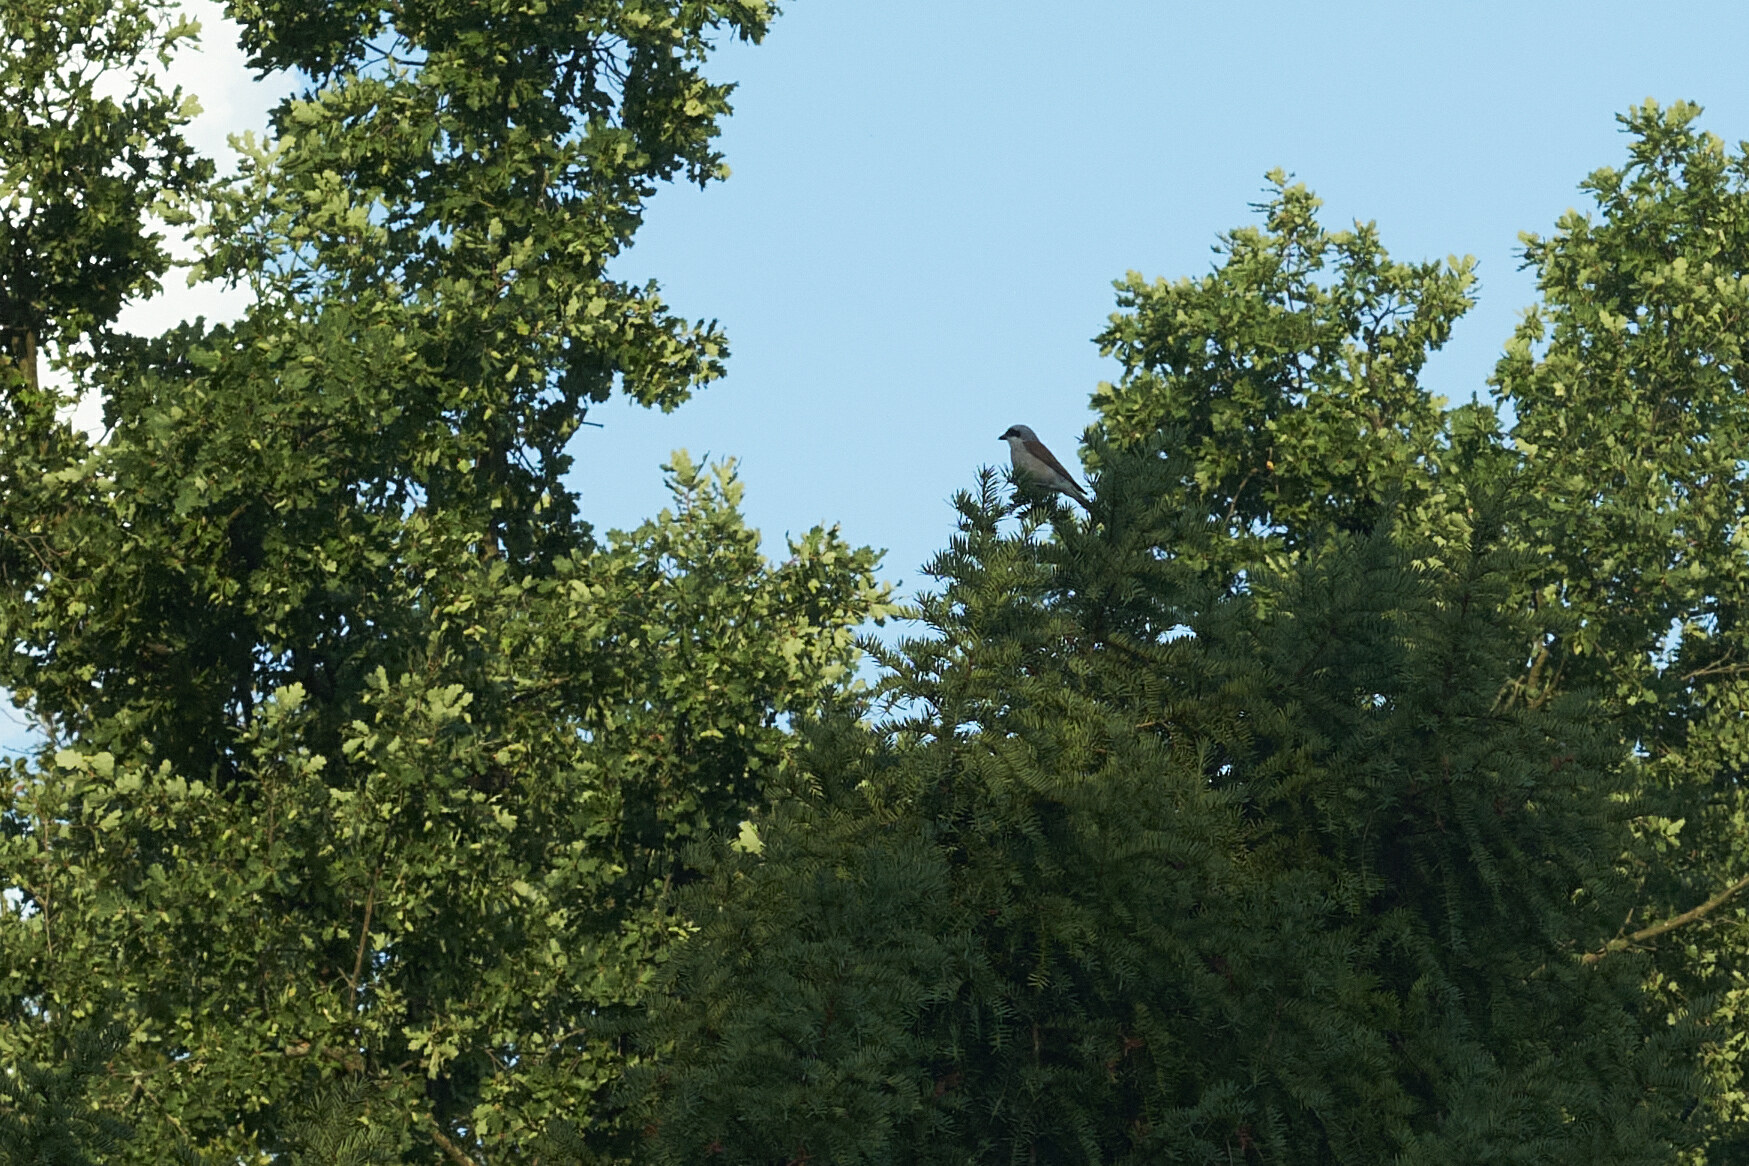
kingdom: Animalia
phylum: Chordata
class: Aves
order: Passeriformes
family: Laniidae
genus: Lanius
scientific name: Lanius collurio
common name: Red-backed shrike
